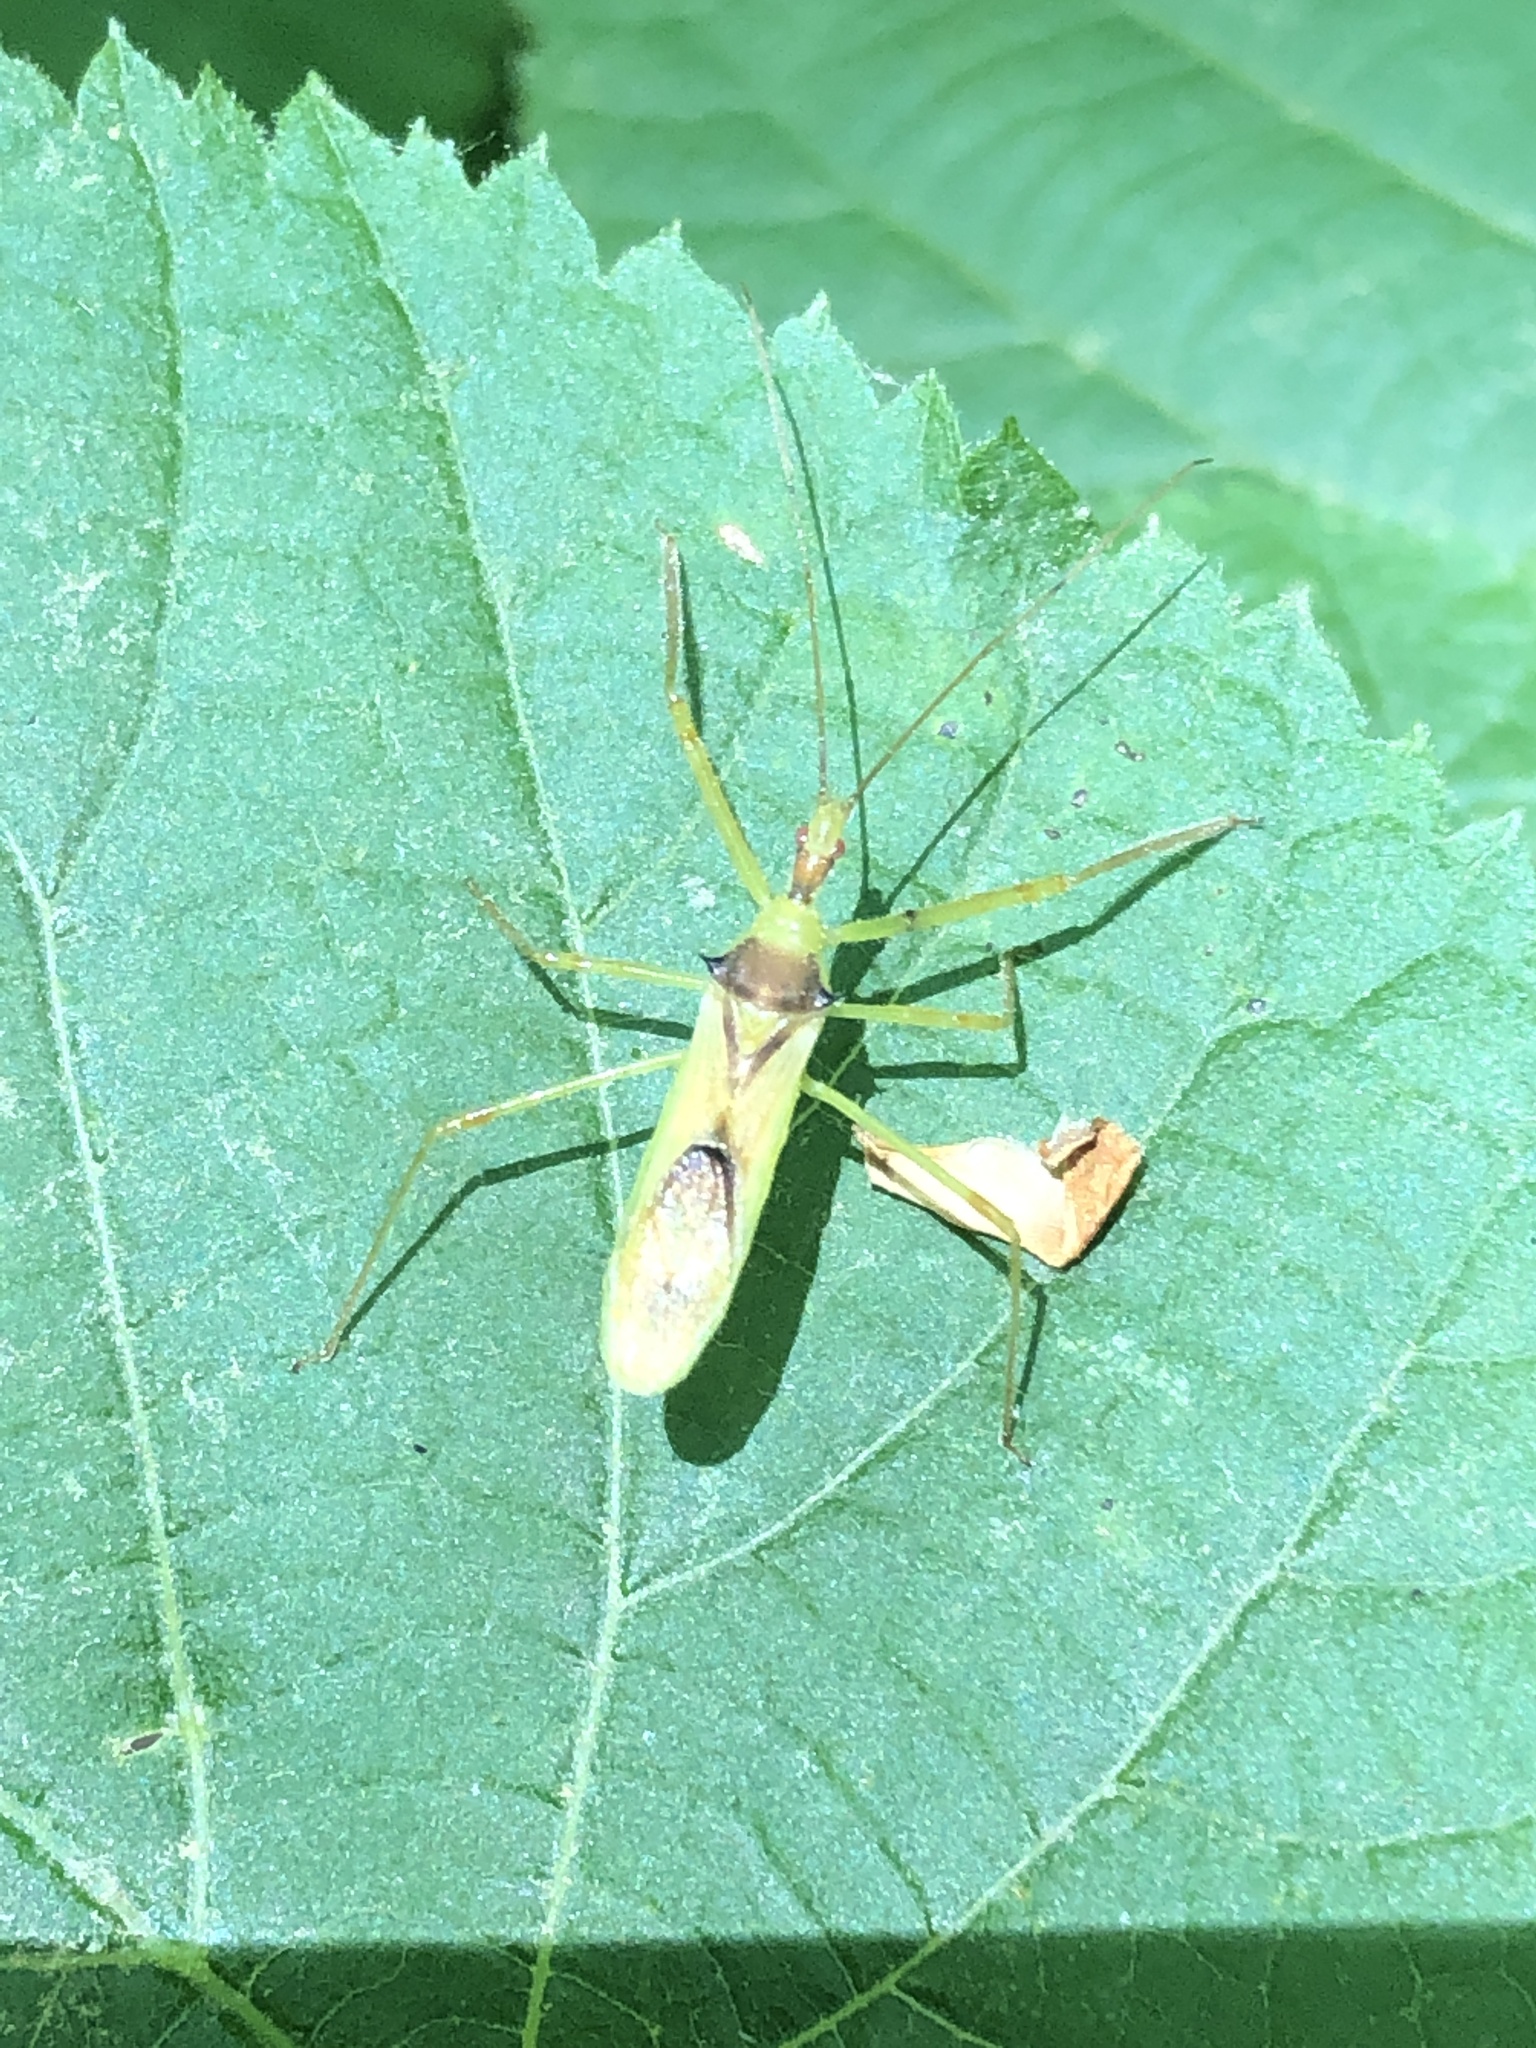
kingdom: Animalia
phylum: Arthropoda
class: Insecta
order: Hemiptera
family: Reduviidae
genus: Zelus
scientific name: Zelus luridus
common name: Pale green assassin bug
